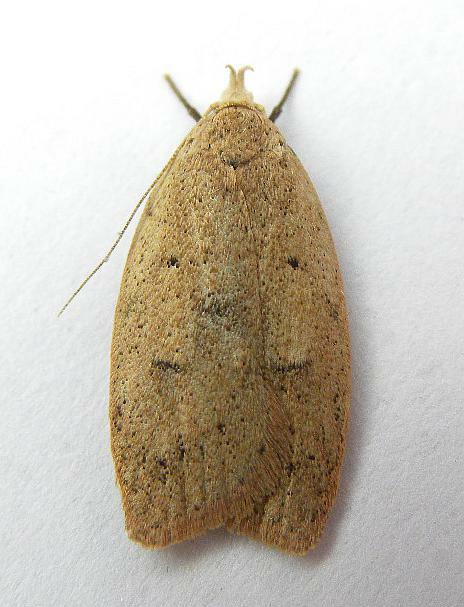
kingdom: Animalia
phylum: Arthropoda
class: Insecta
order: Lepidoptera
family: Peleopodidae
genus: Machimia
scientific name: Machimia tentoriferella
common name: Gold-striped leaftier moth
